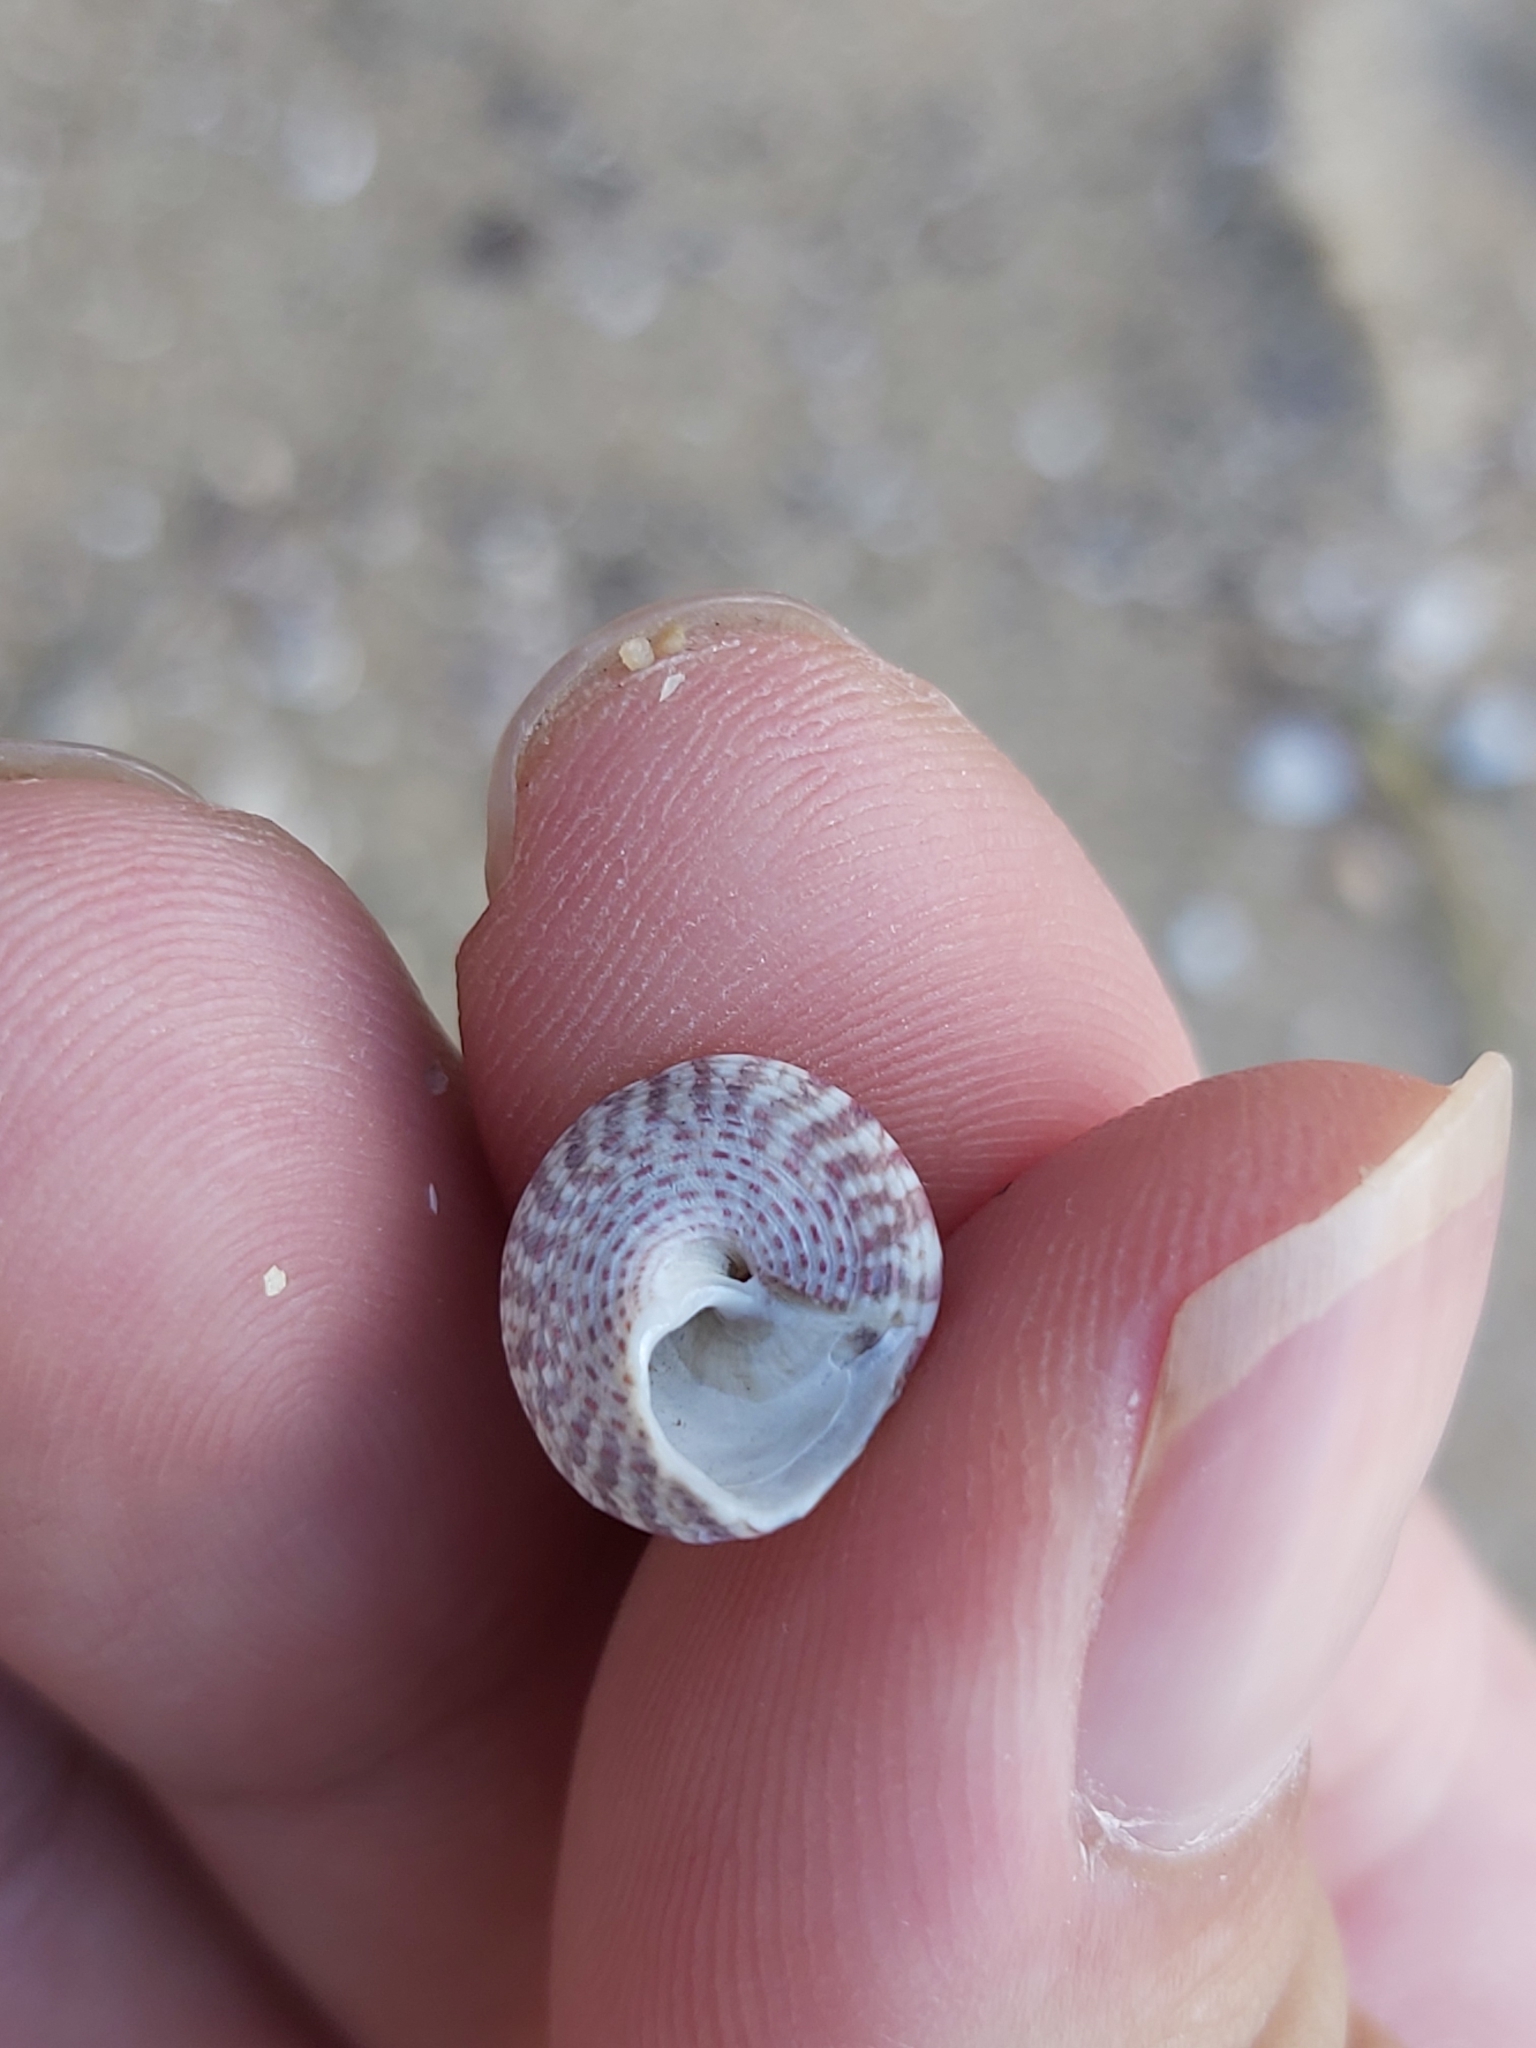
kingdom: Animalia
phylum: Mollusca
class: Gastropoda
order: Trochida
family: Trochidae
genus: Calthalotia
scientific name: Calthalotia arruensis
